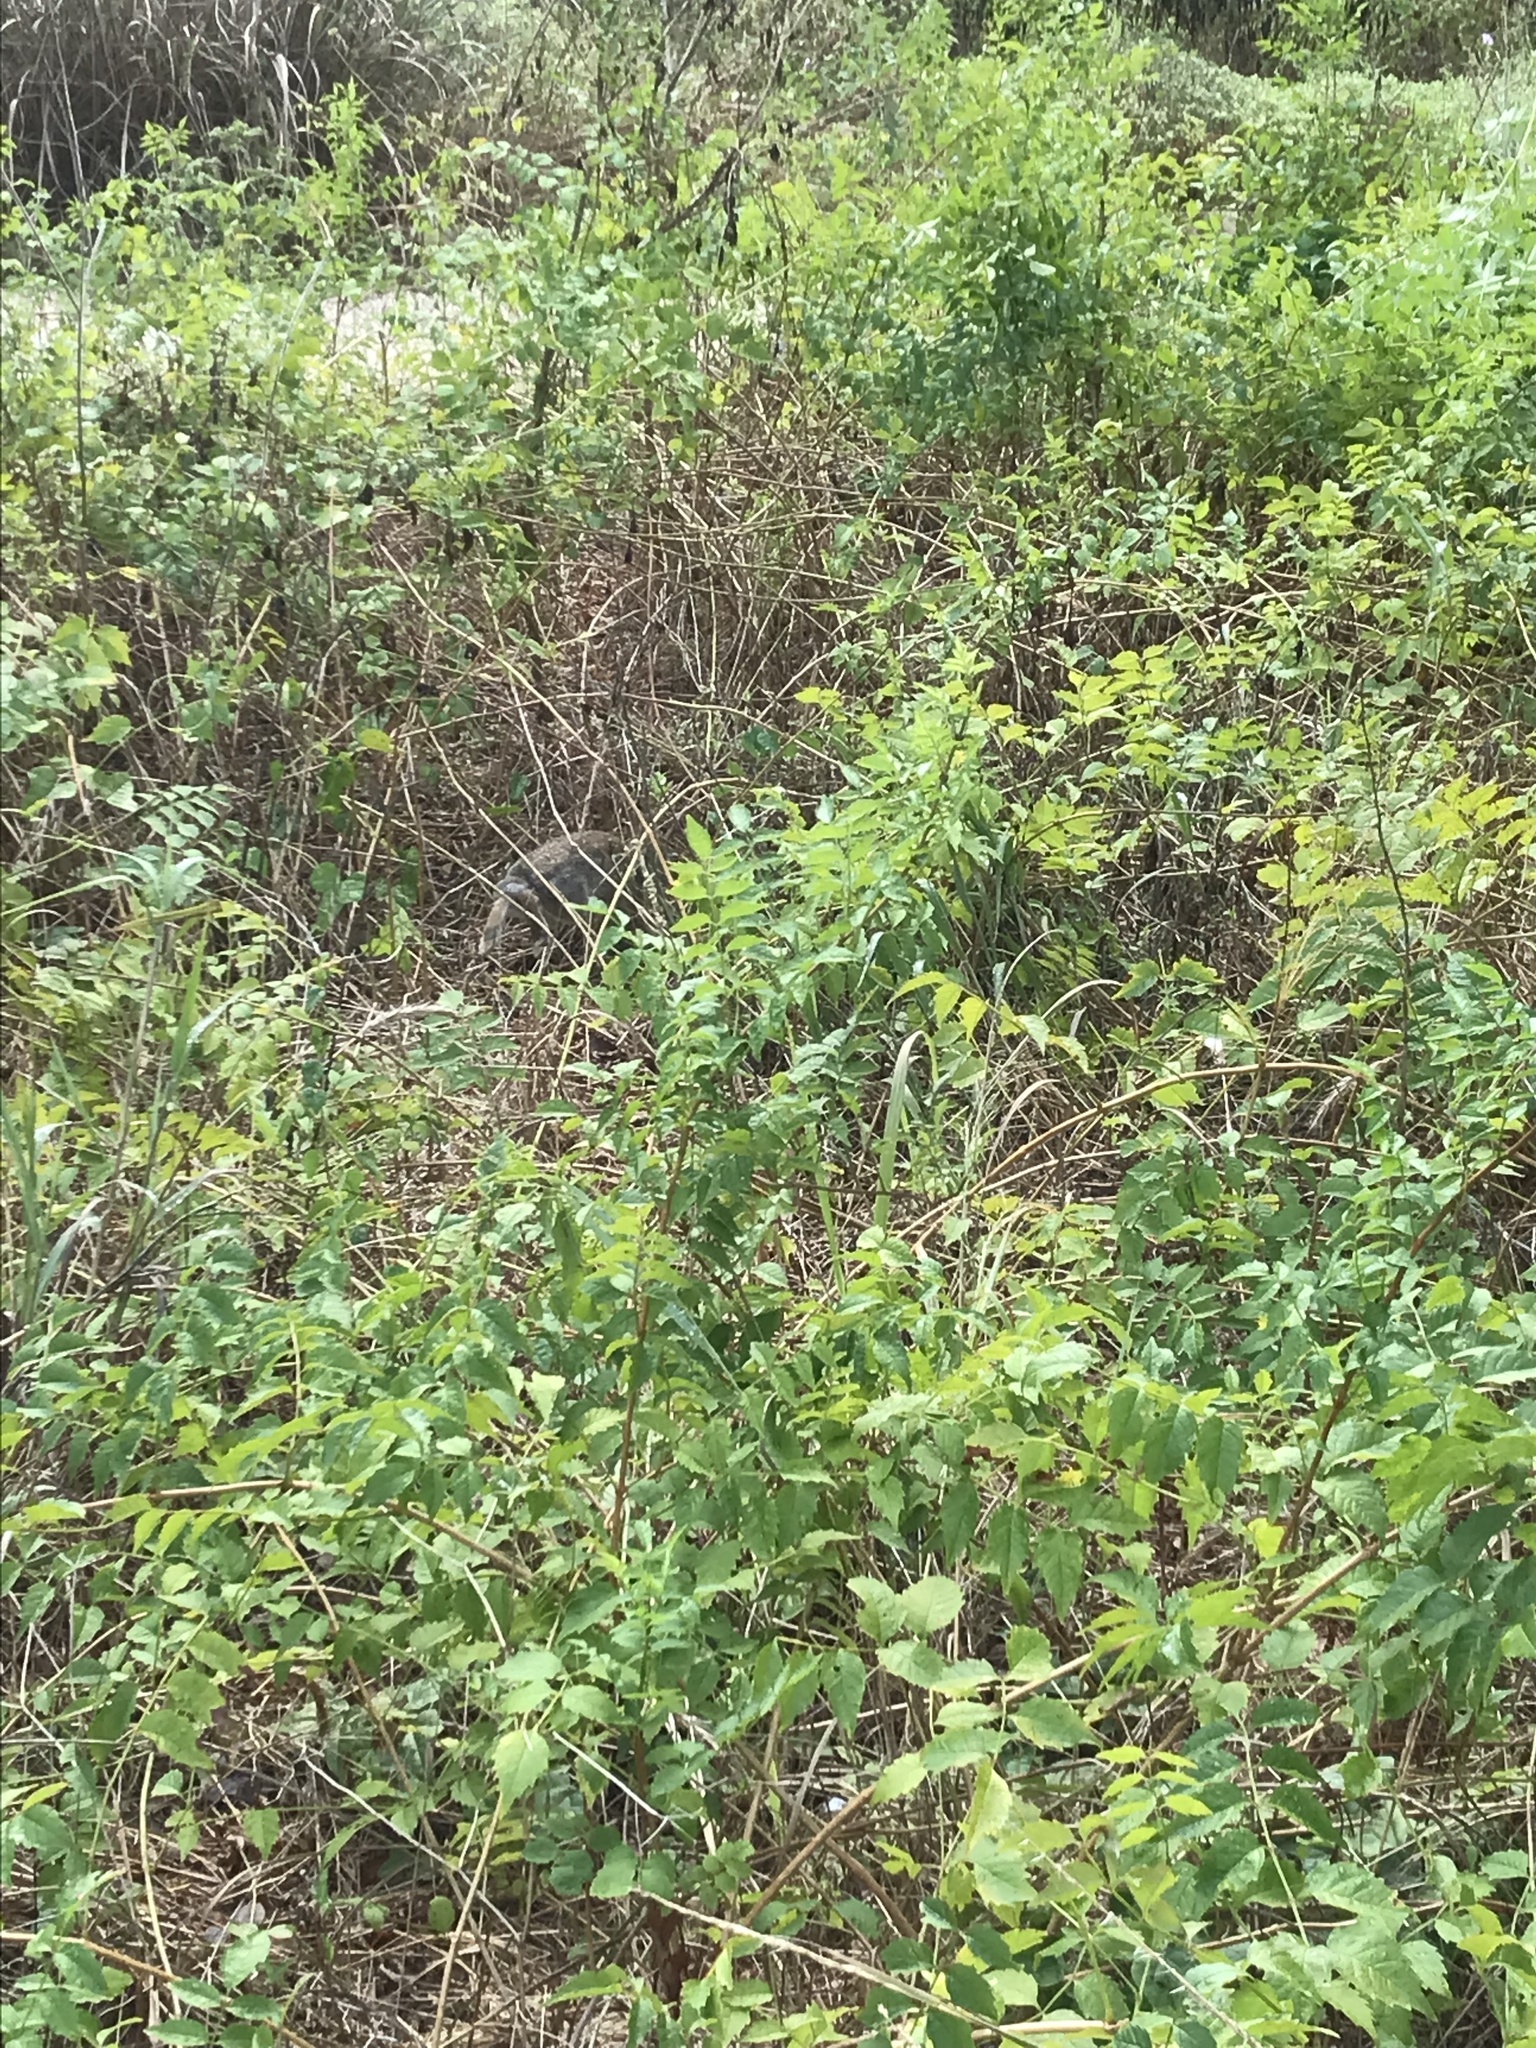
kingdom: Animalia
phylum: Chordata
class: Mammalia
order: Lagomorpha
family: Leporidae
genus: Sylvilagus
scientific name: Sylvilagus floridanus
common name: Eastern cottontail
